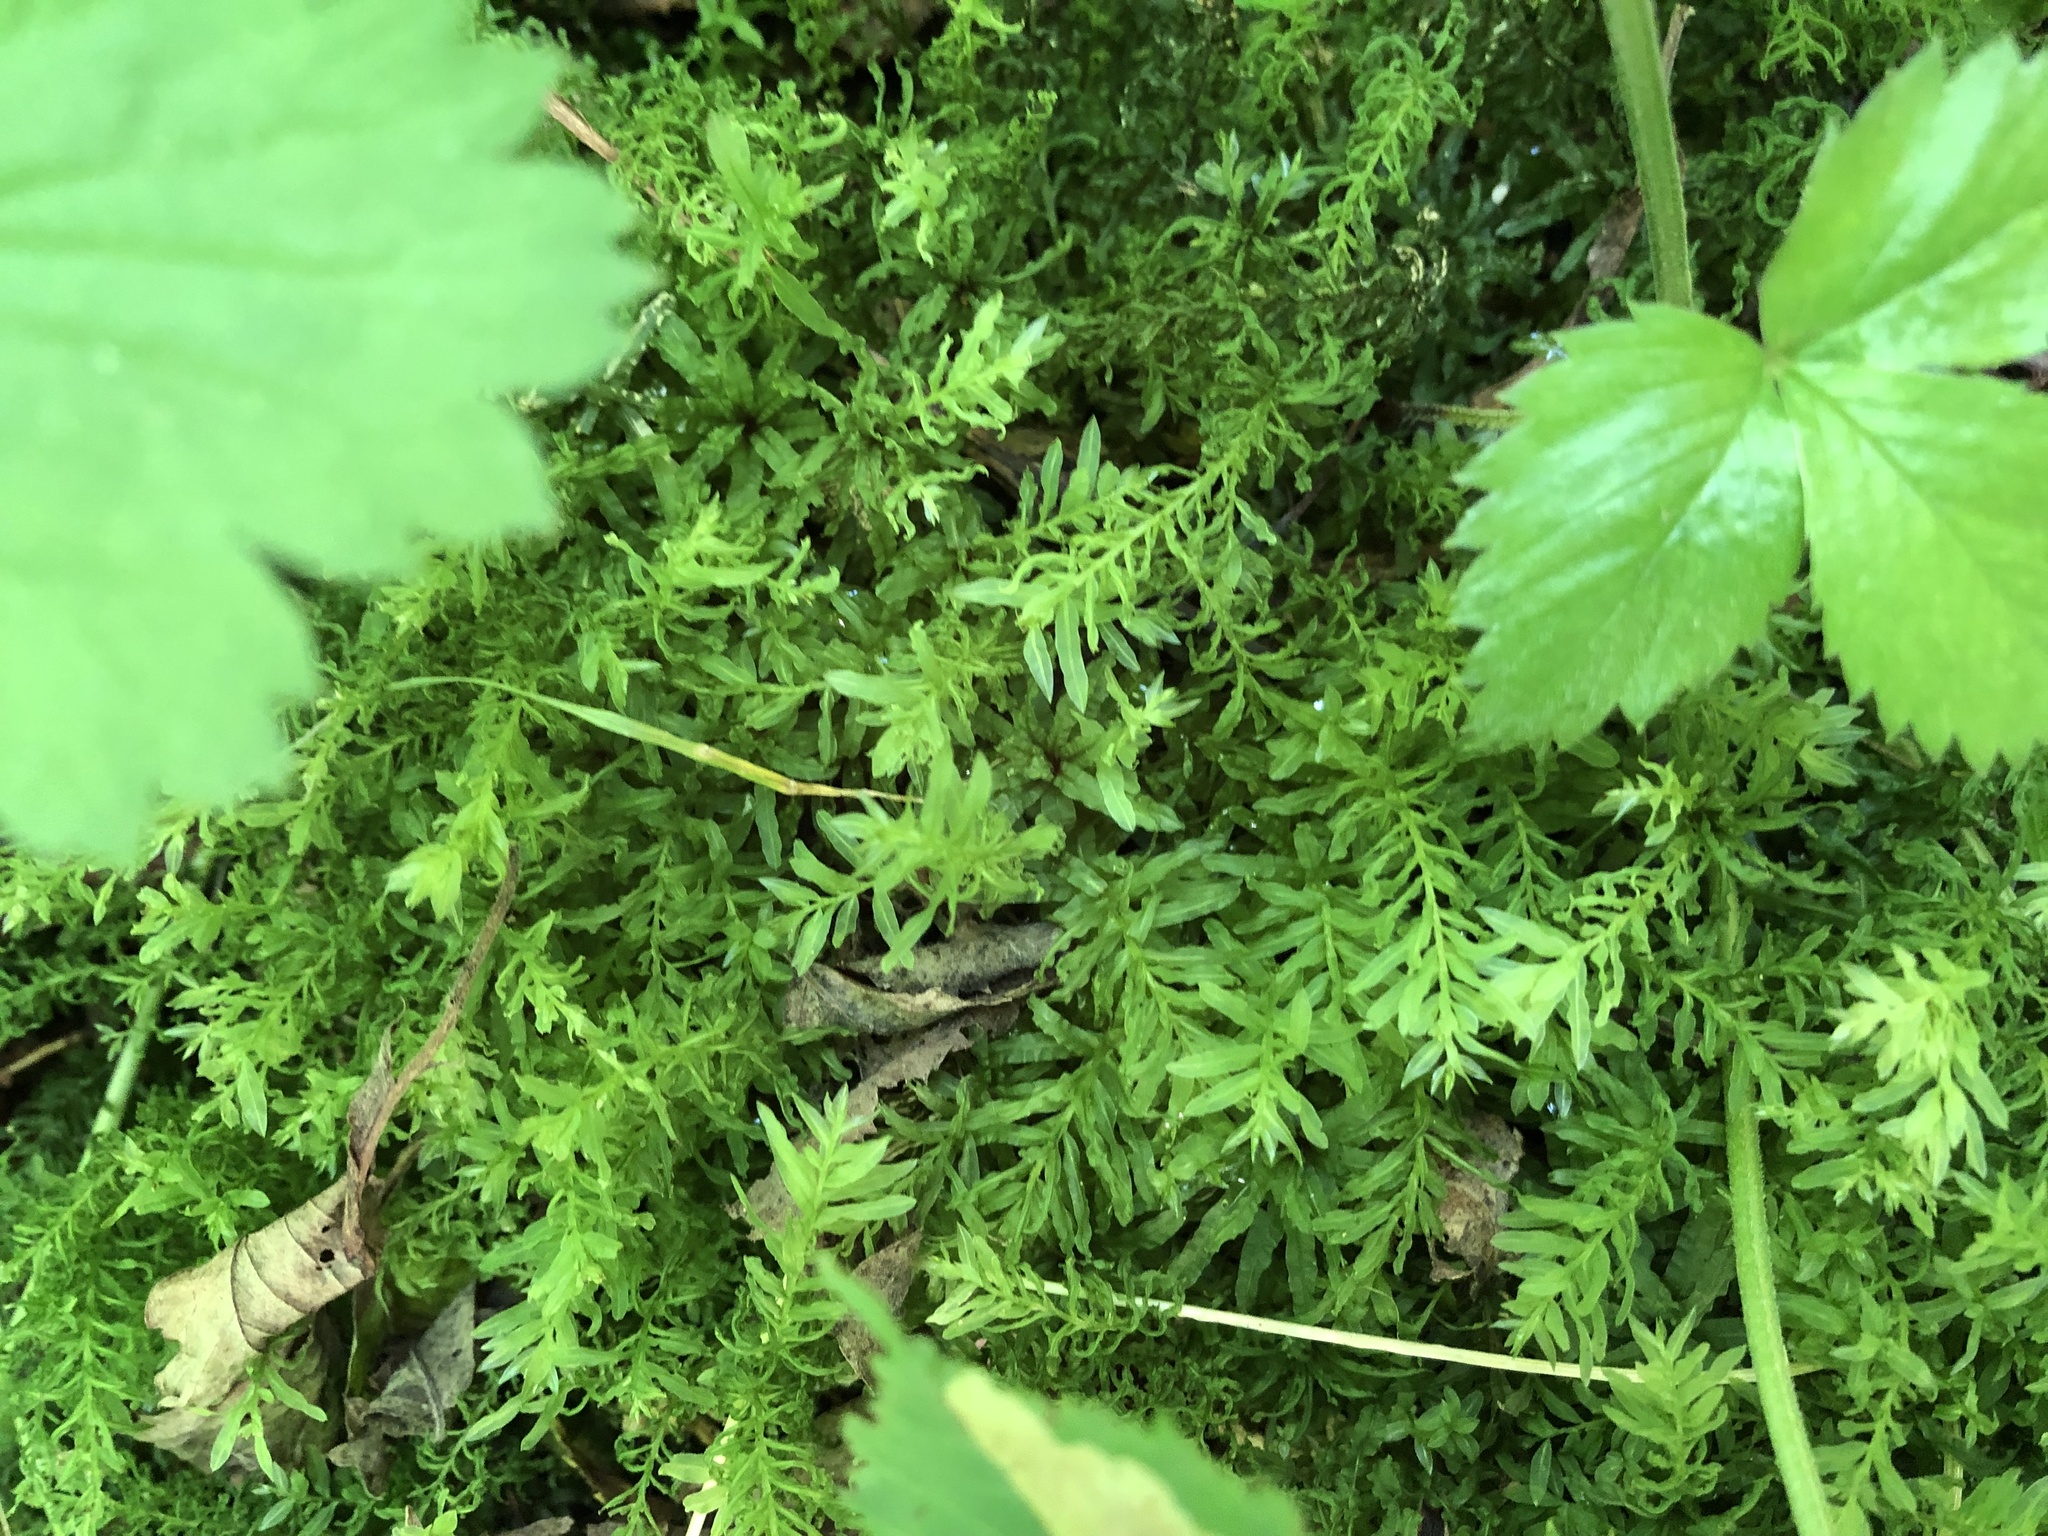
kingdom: Plantae
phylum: Bryophyta
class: Bryopsida
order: Bryales
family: Mniaceae
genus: Plagiomnium
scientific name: Plagiomnium undulatum
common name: Hart's-tongue thyme-moss
